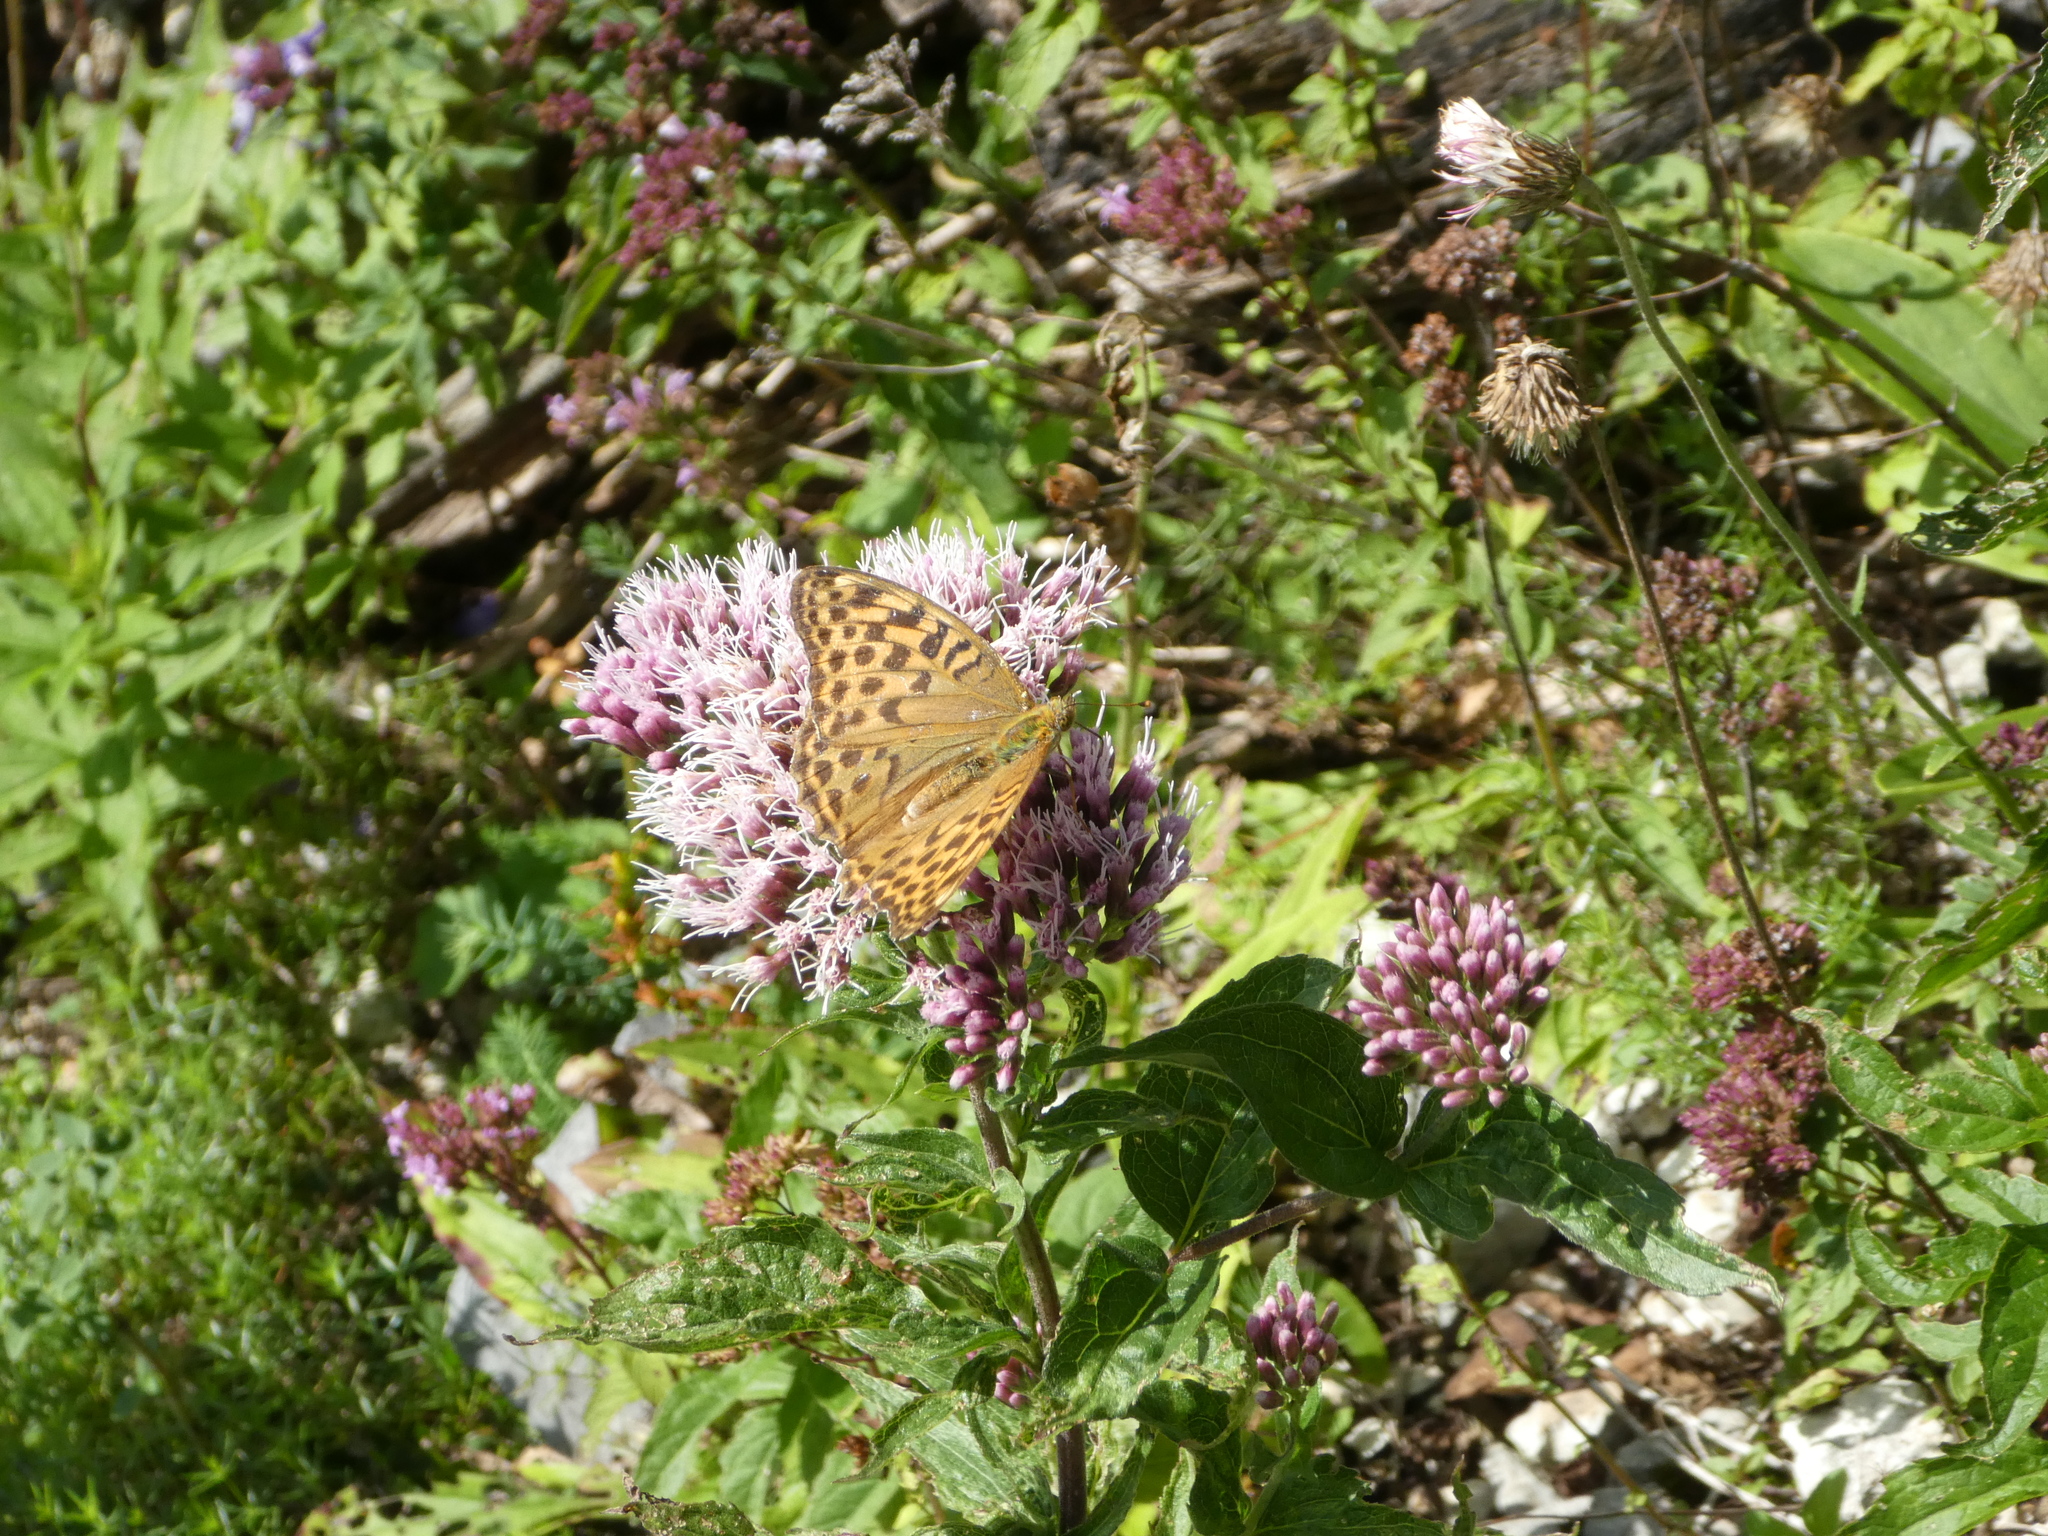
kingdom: Animalia
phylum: Arthropoda
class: Insecta
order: Lepidoptera
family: Nymphalidae
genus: Argynnis
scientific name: Argynnis paphia
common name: Silver-washed fritillary
